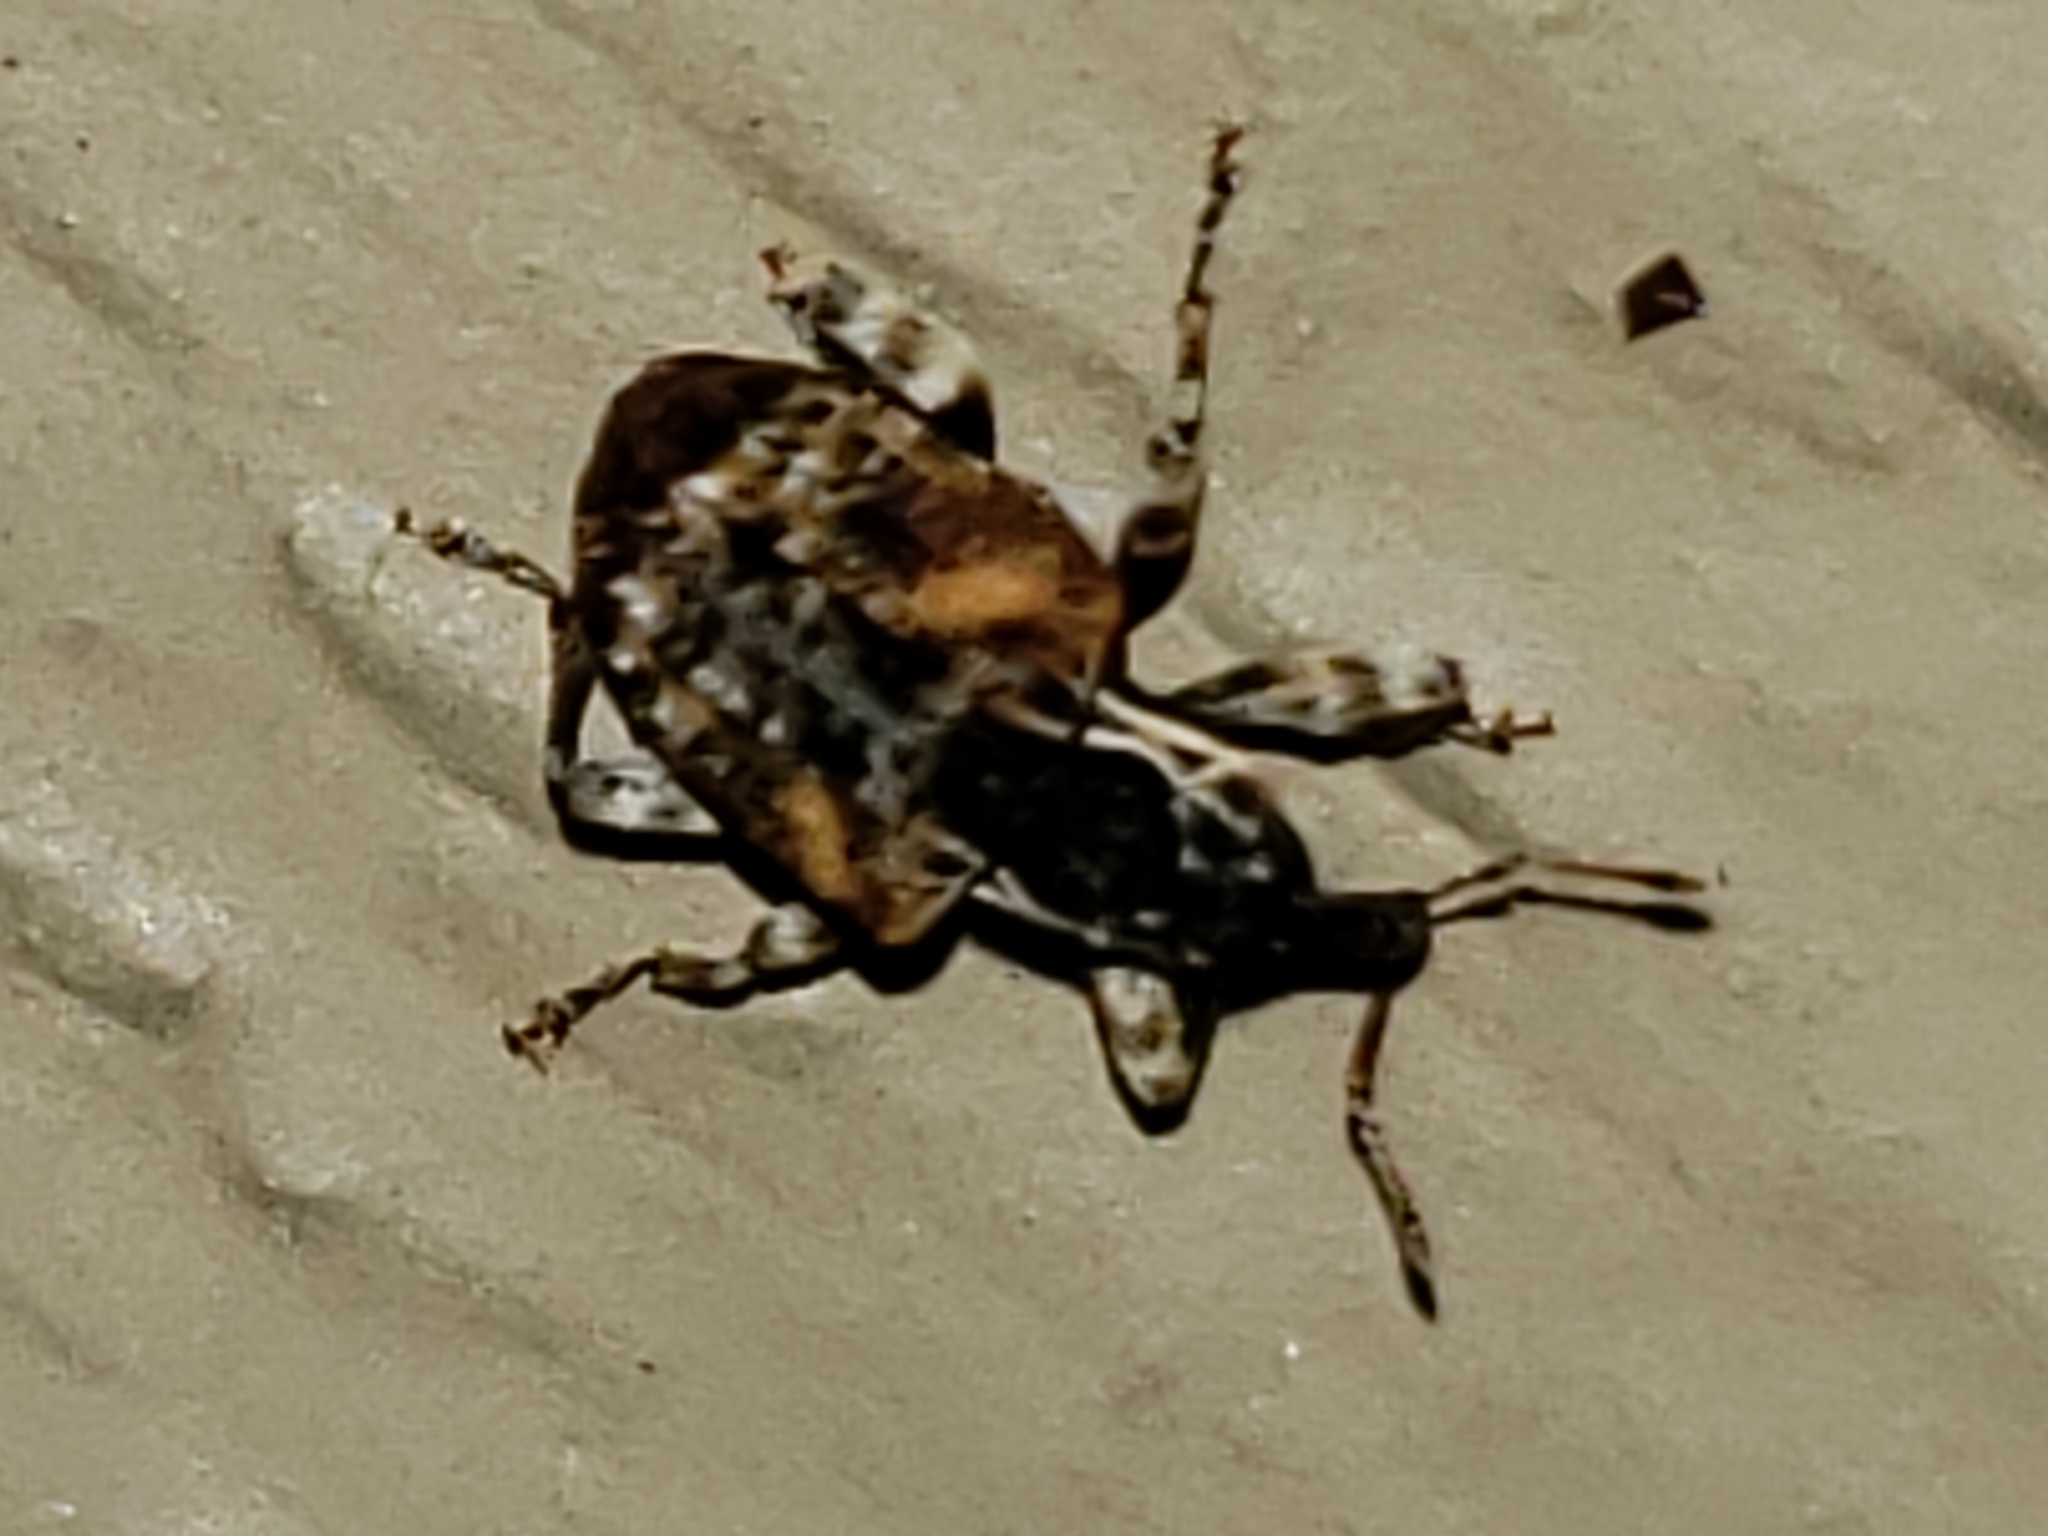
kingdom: Animalia
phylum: Arthropoda
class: Insecta
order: Coleoptera
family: Curculionidae
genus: Conotrachelus
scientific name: Conotrachelus anaglypticus
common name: Cambium curculio
